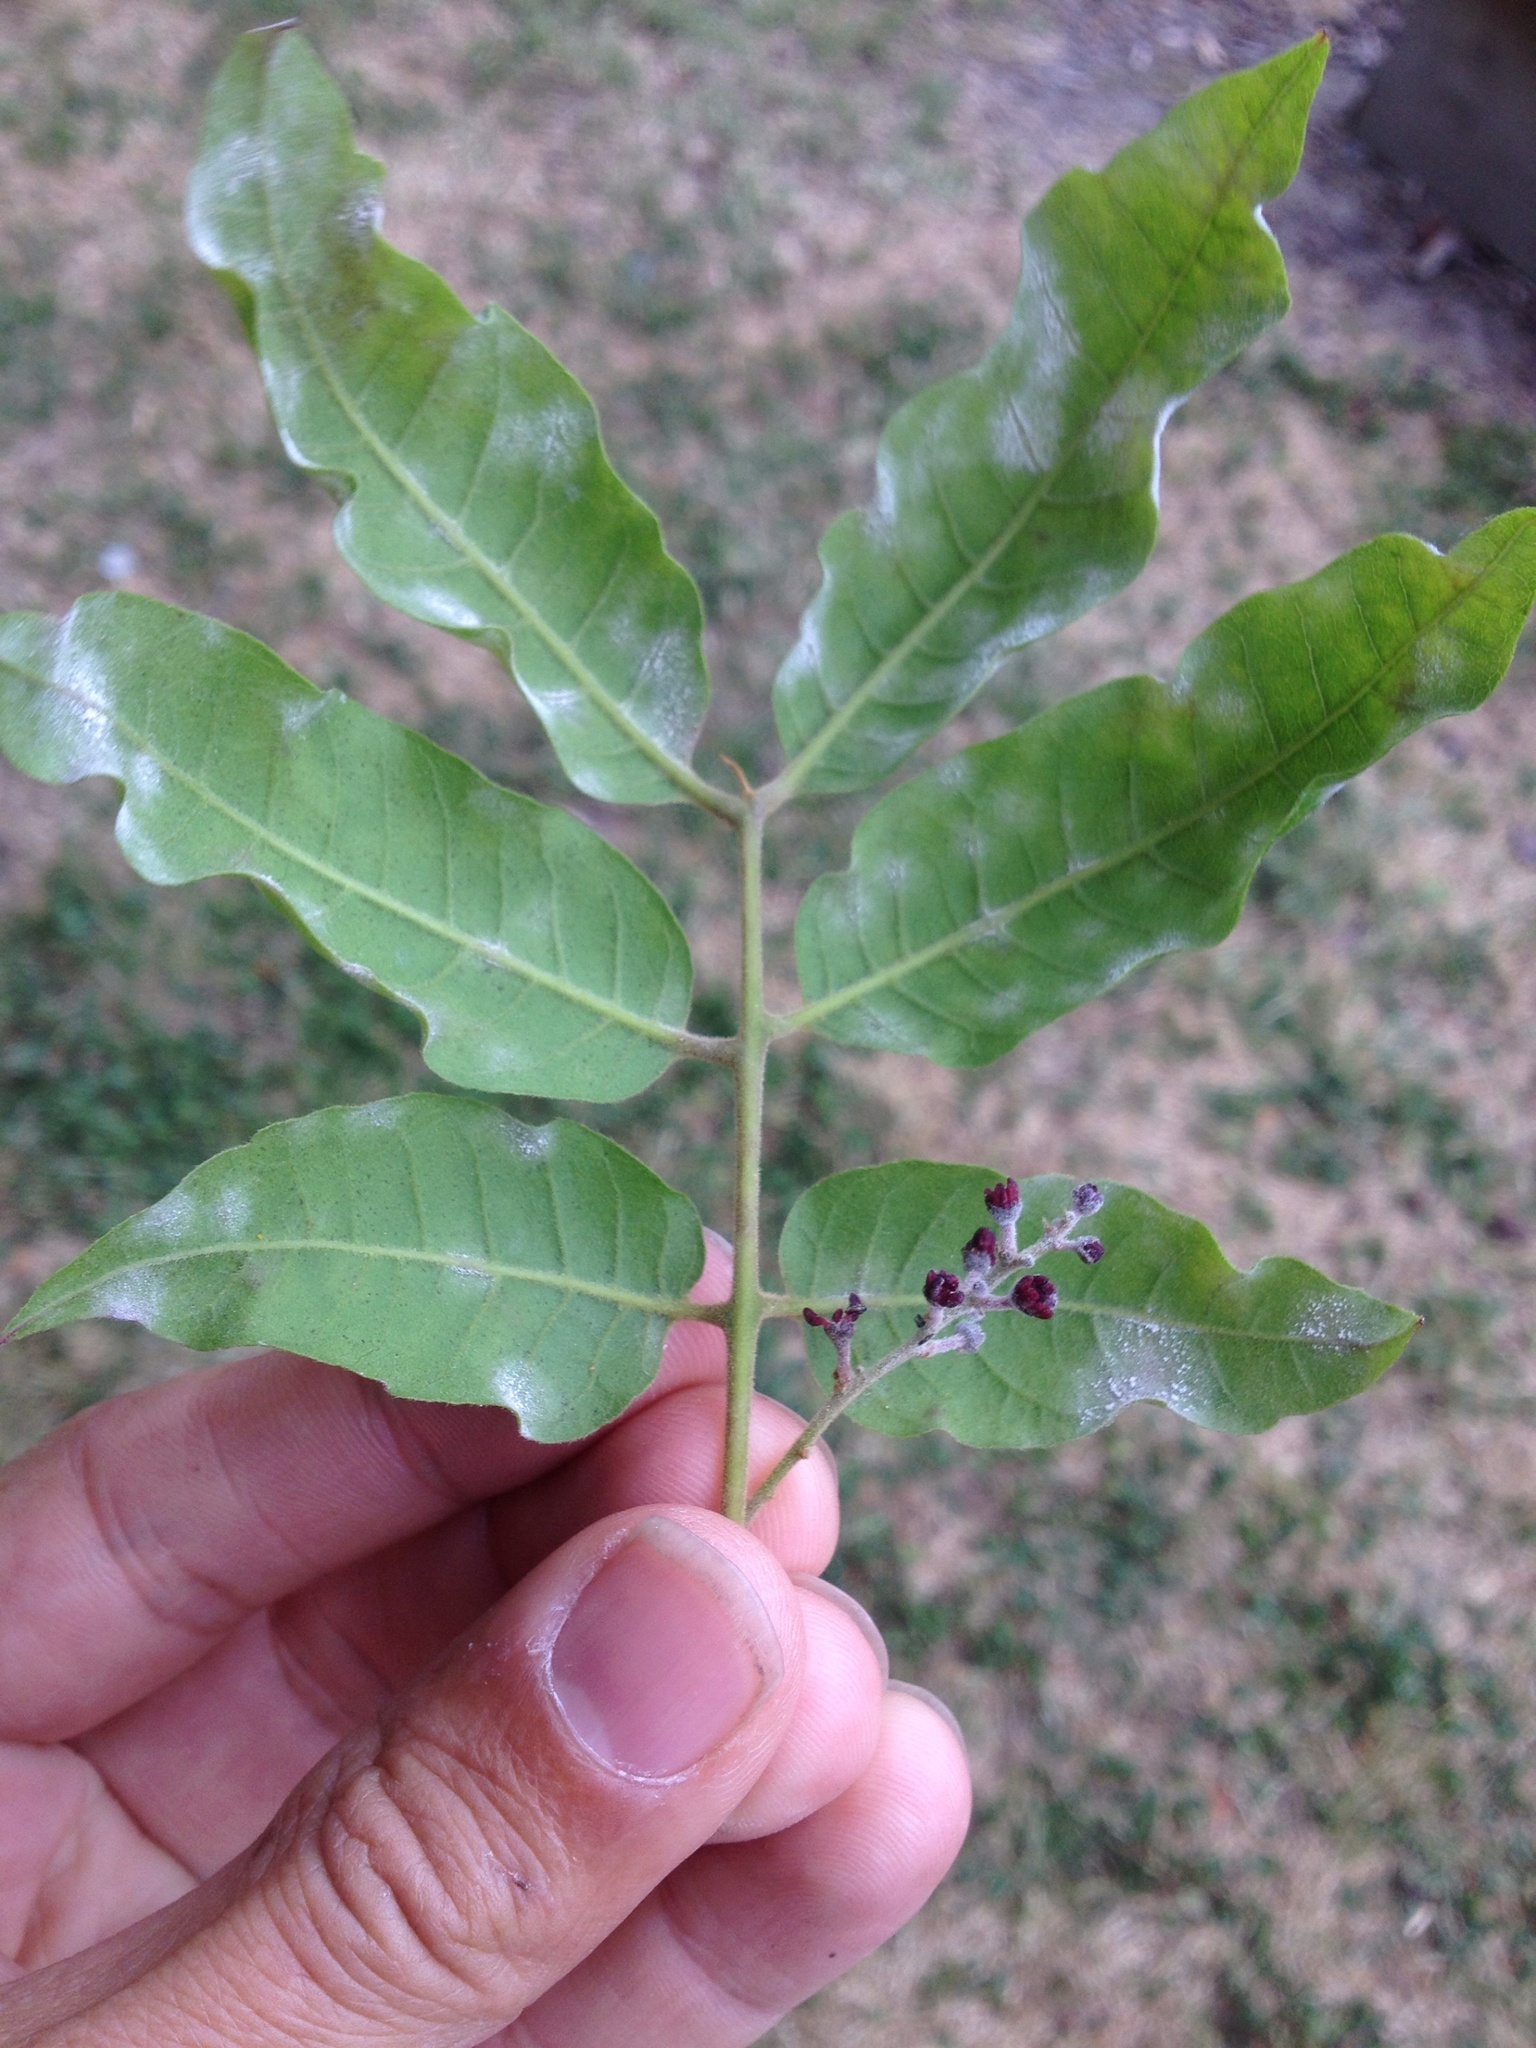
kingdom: Fungi
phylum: Ascomycota
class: Leotiomycetes
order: Helotiales
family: Erysiphaceae
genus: Sawadaea
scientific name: Sawadaea bicornis
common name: Maple mildew
